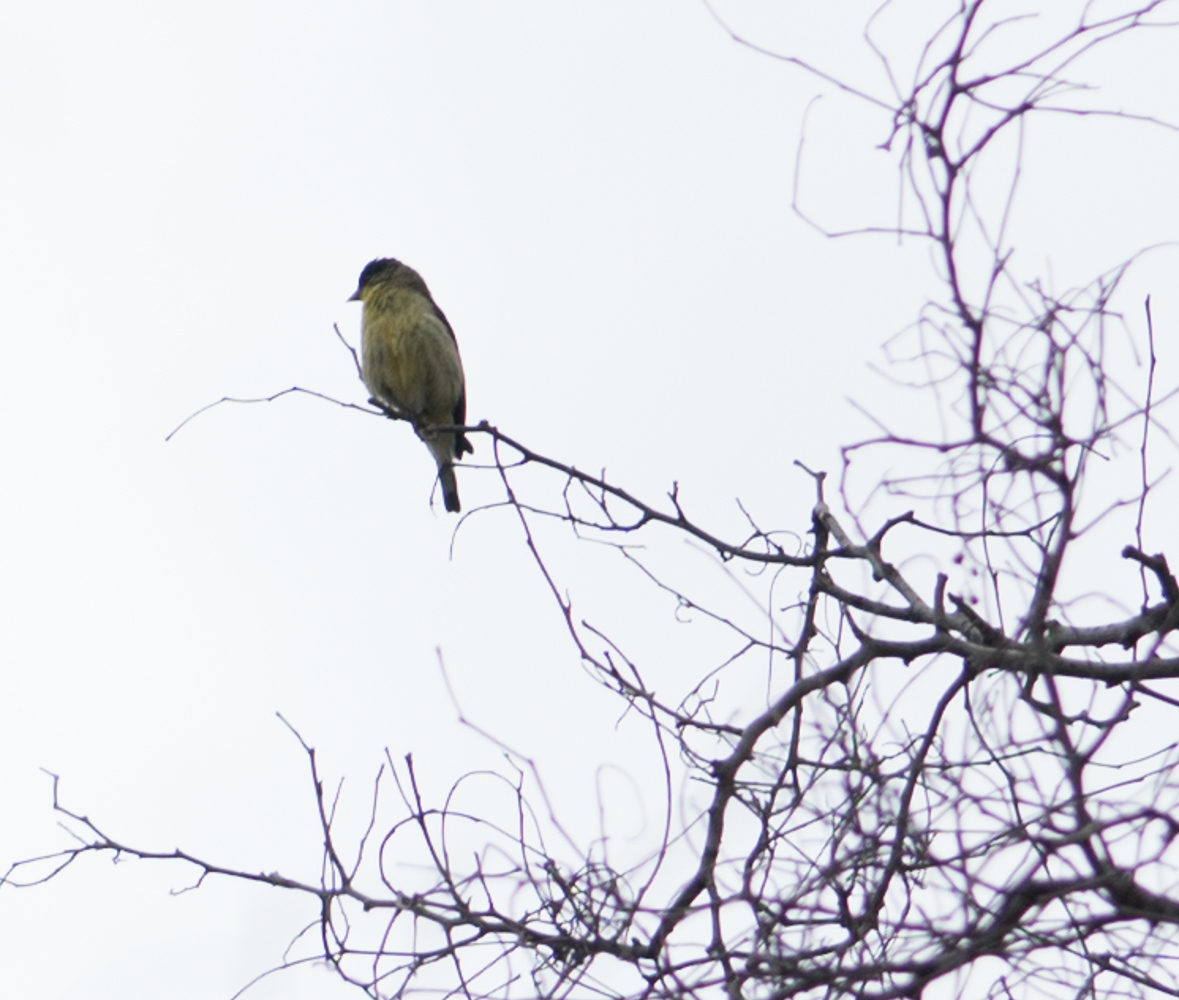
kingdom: Animalia
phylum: Chordata
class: Aves
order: Passeriformes
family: Fringillidae
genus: Spinus
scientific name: Spinus psaltria
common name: Lesser goldfinch
